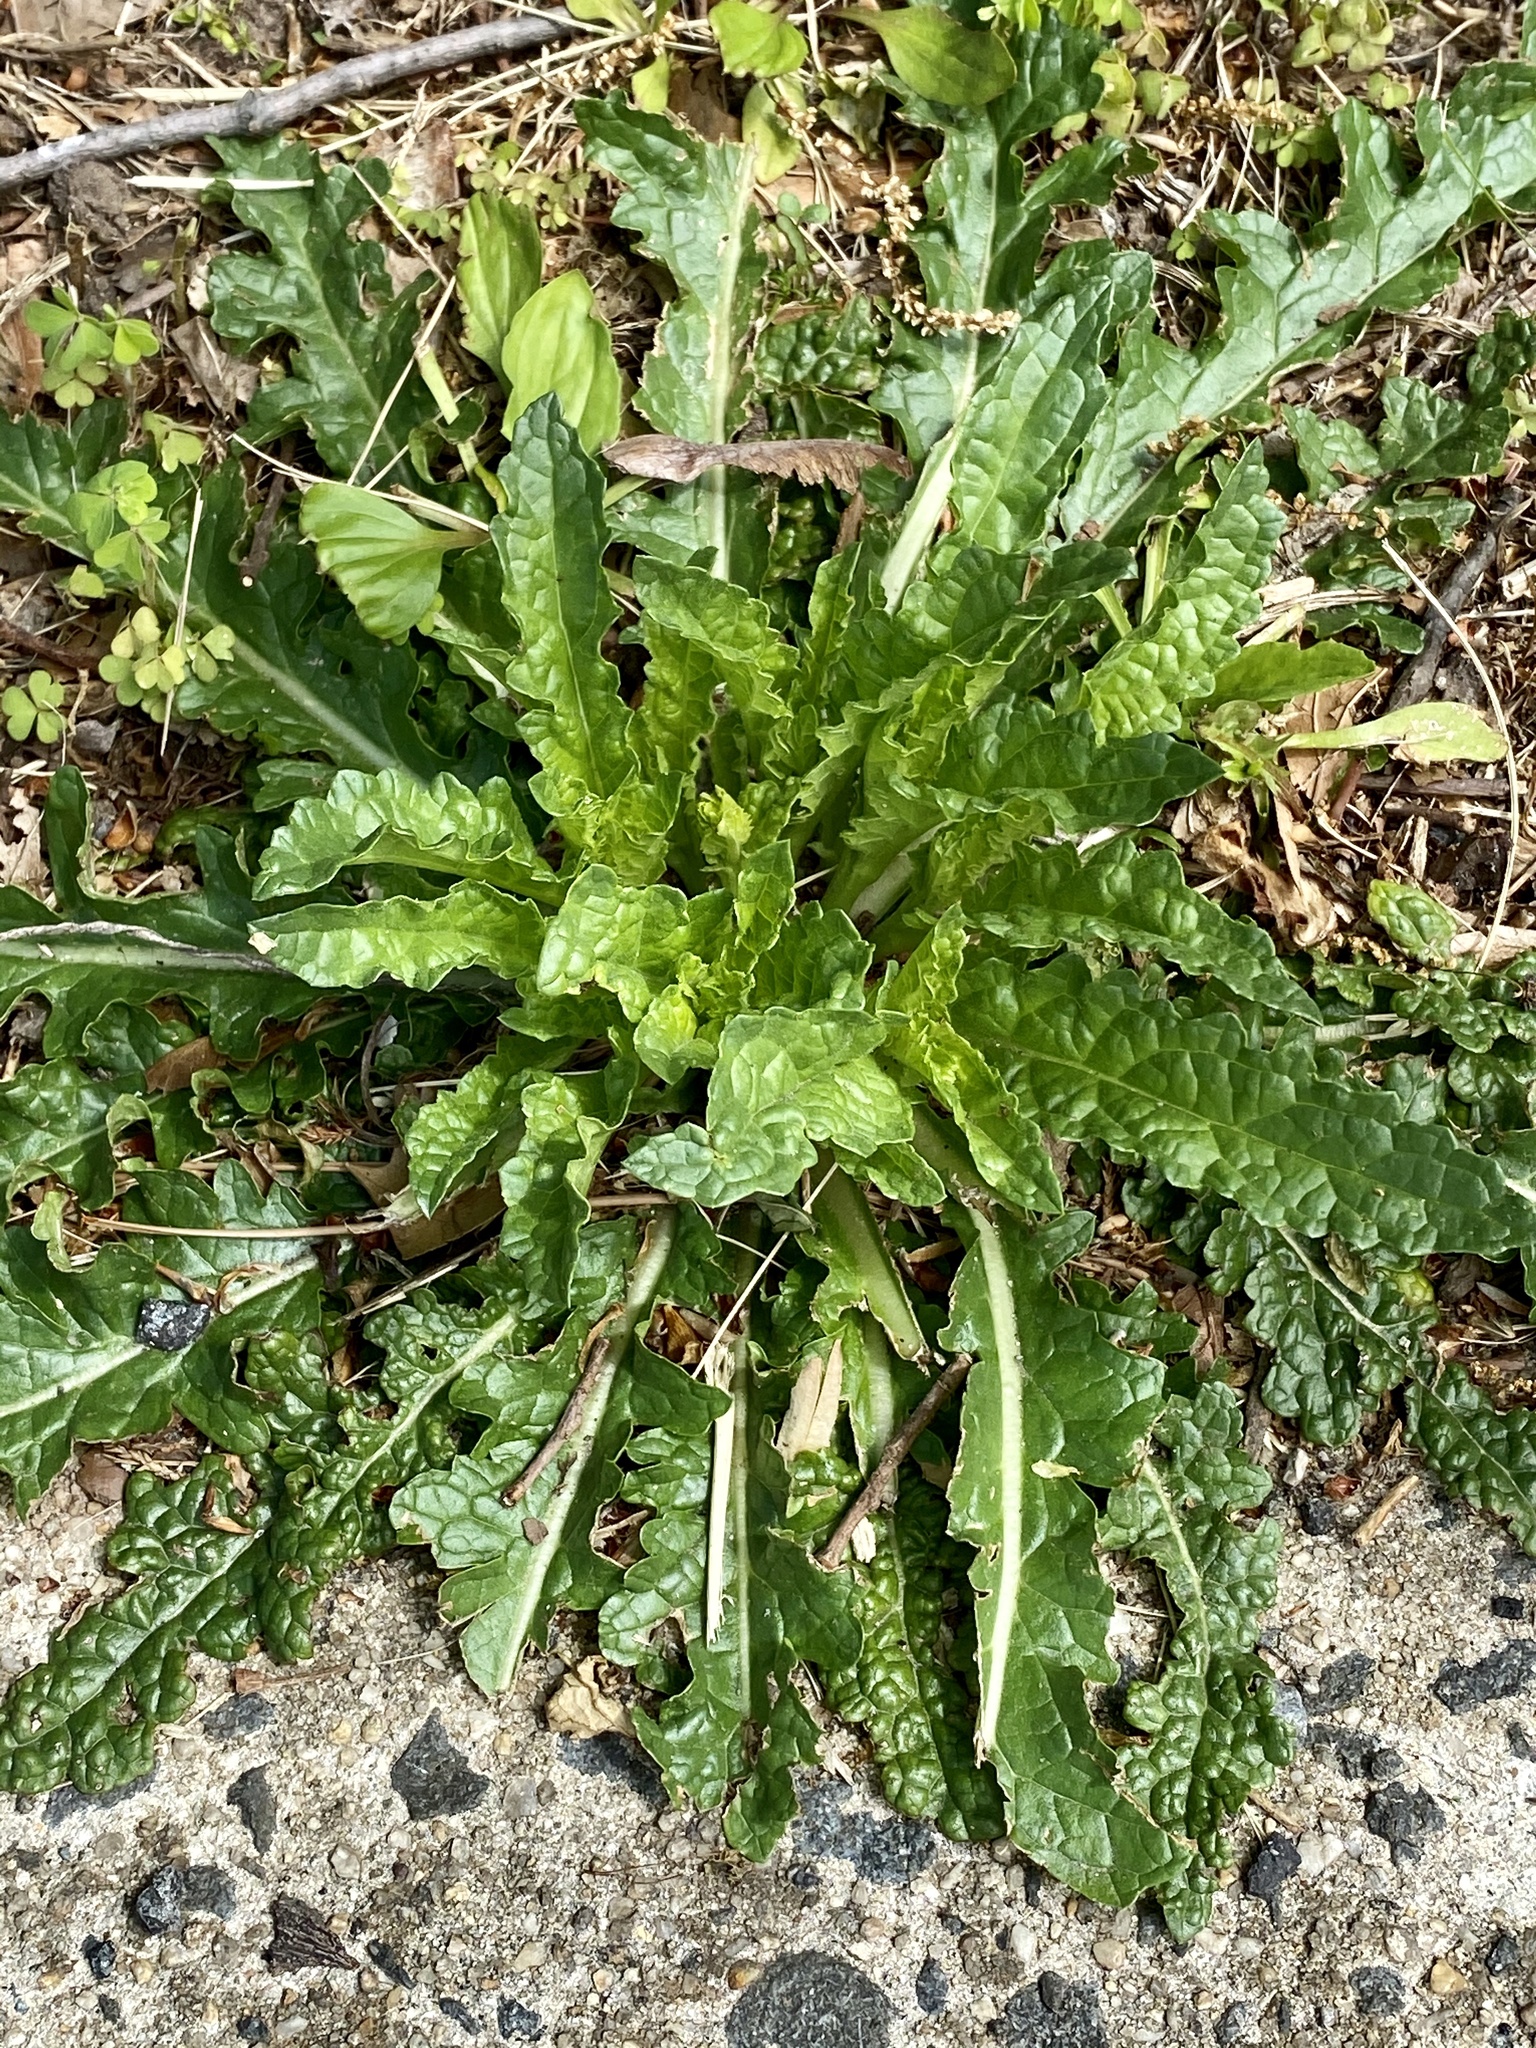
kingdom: Plantae
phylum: Tracheophyta
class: Magnoliopsida
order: Lamiales
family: Scrophulariaceae
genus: Verbascum
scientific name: Verbascum blattaria
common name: Moth mullein
